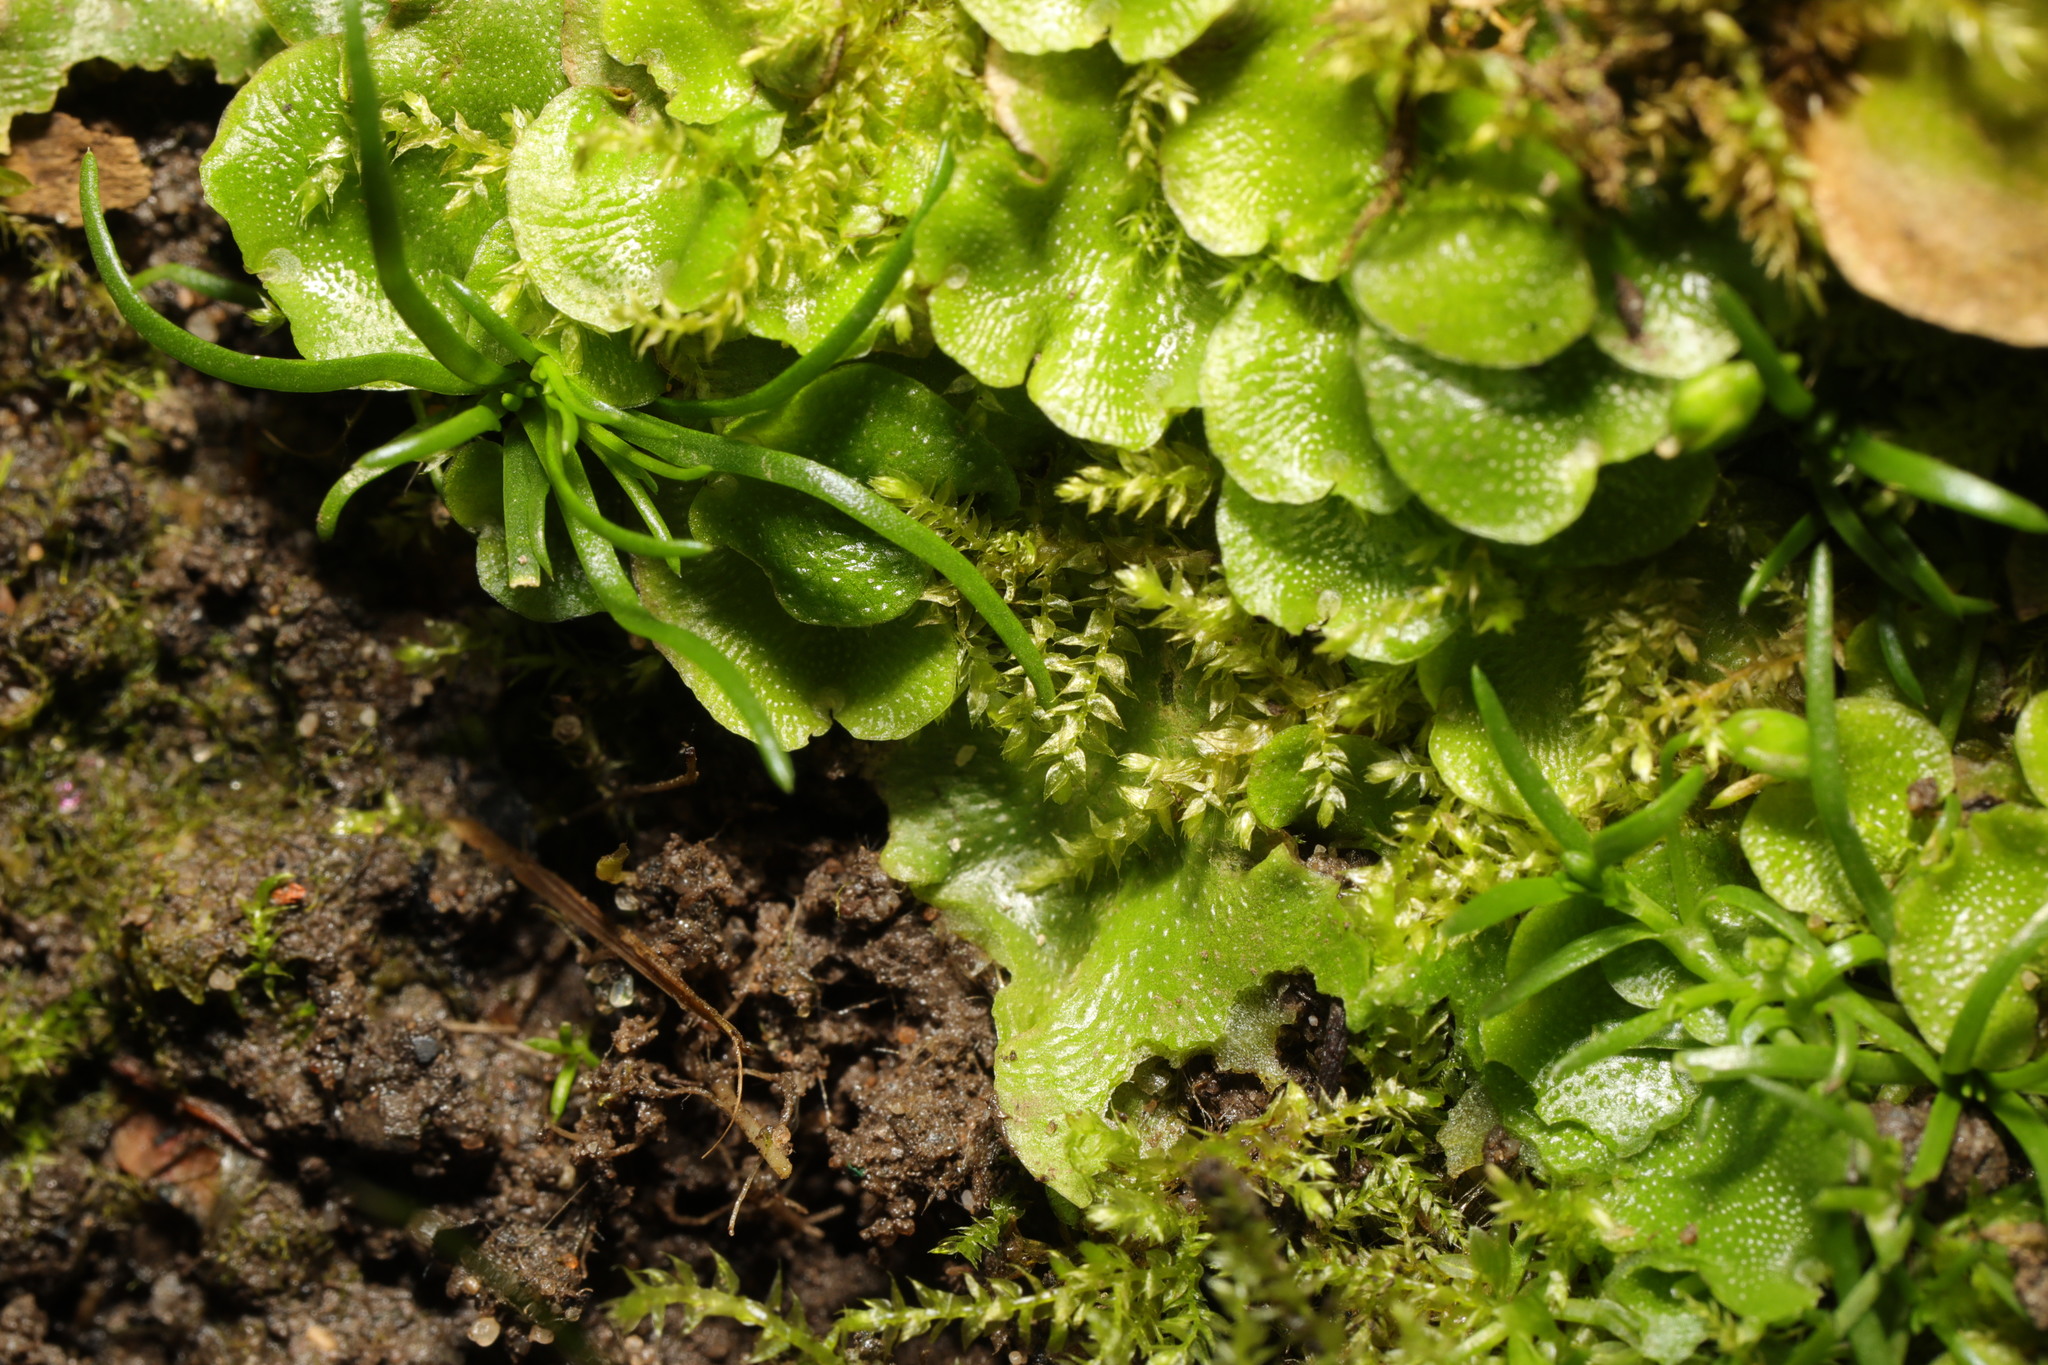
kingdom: Plantae
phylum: Marchantiophyta
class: Marchantiopsida
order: Lunulariales
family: Lunulariaceae
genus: Lunularia
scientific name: Lunularia cruciata
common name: Crescent-cup liverwort
